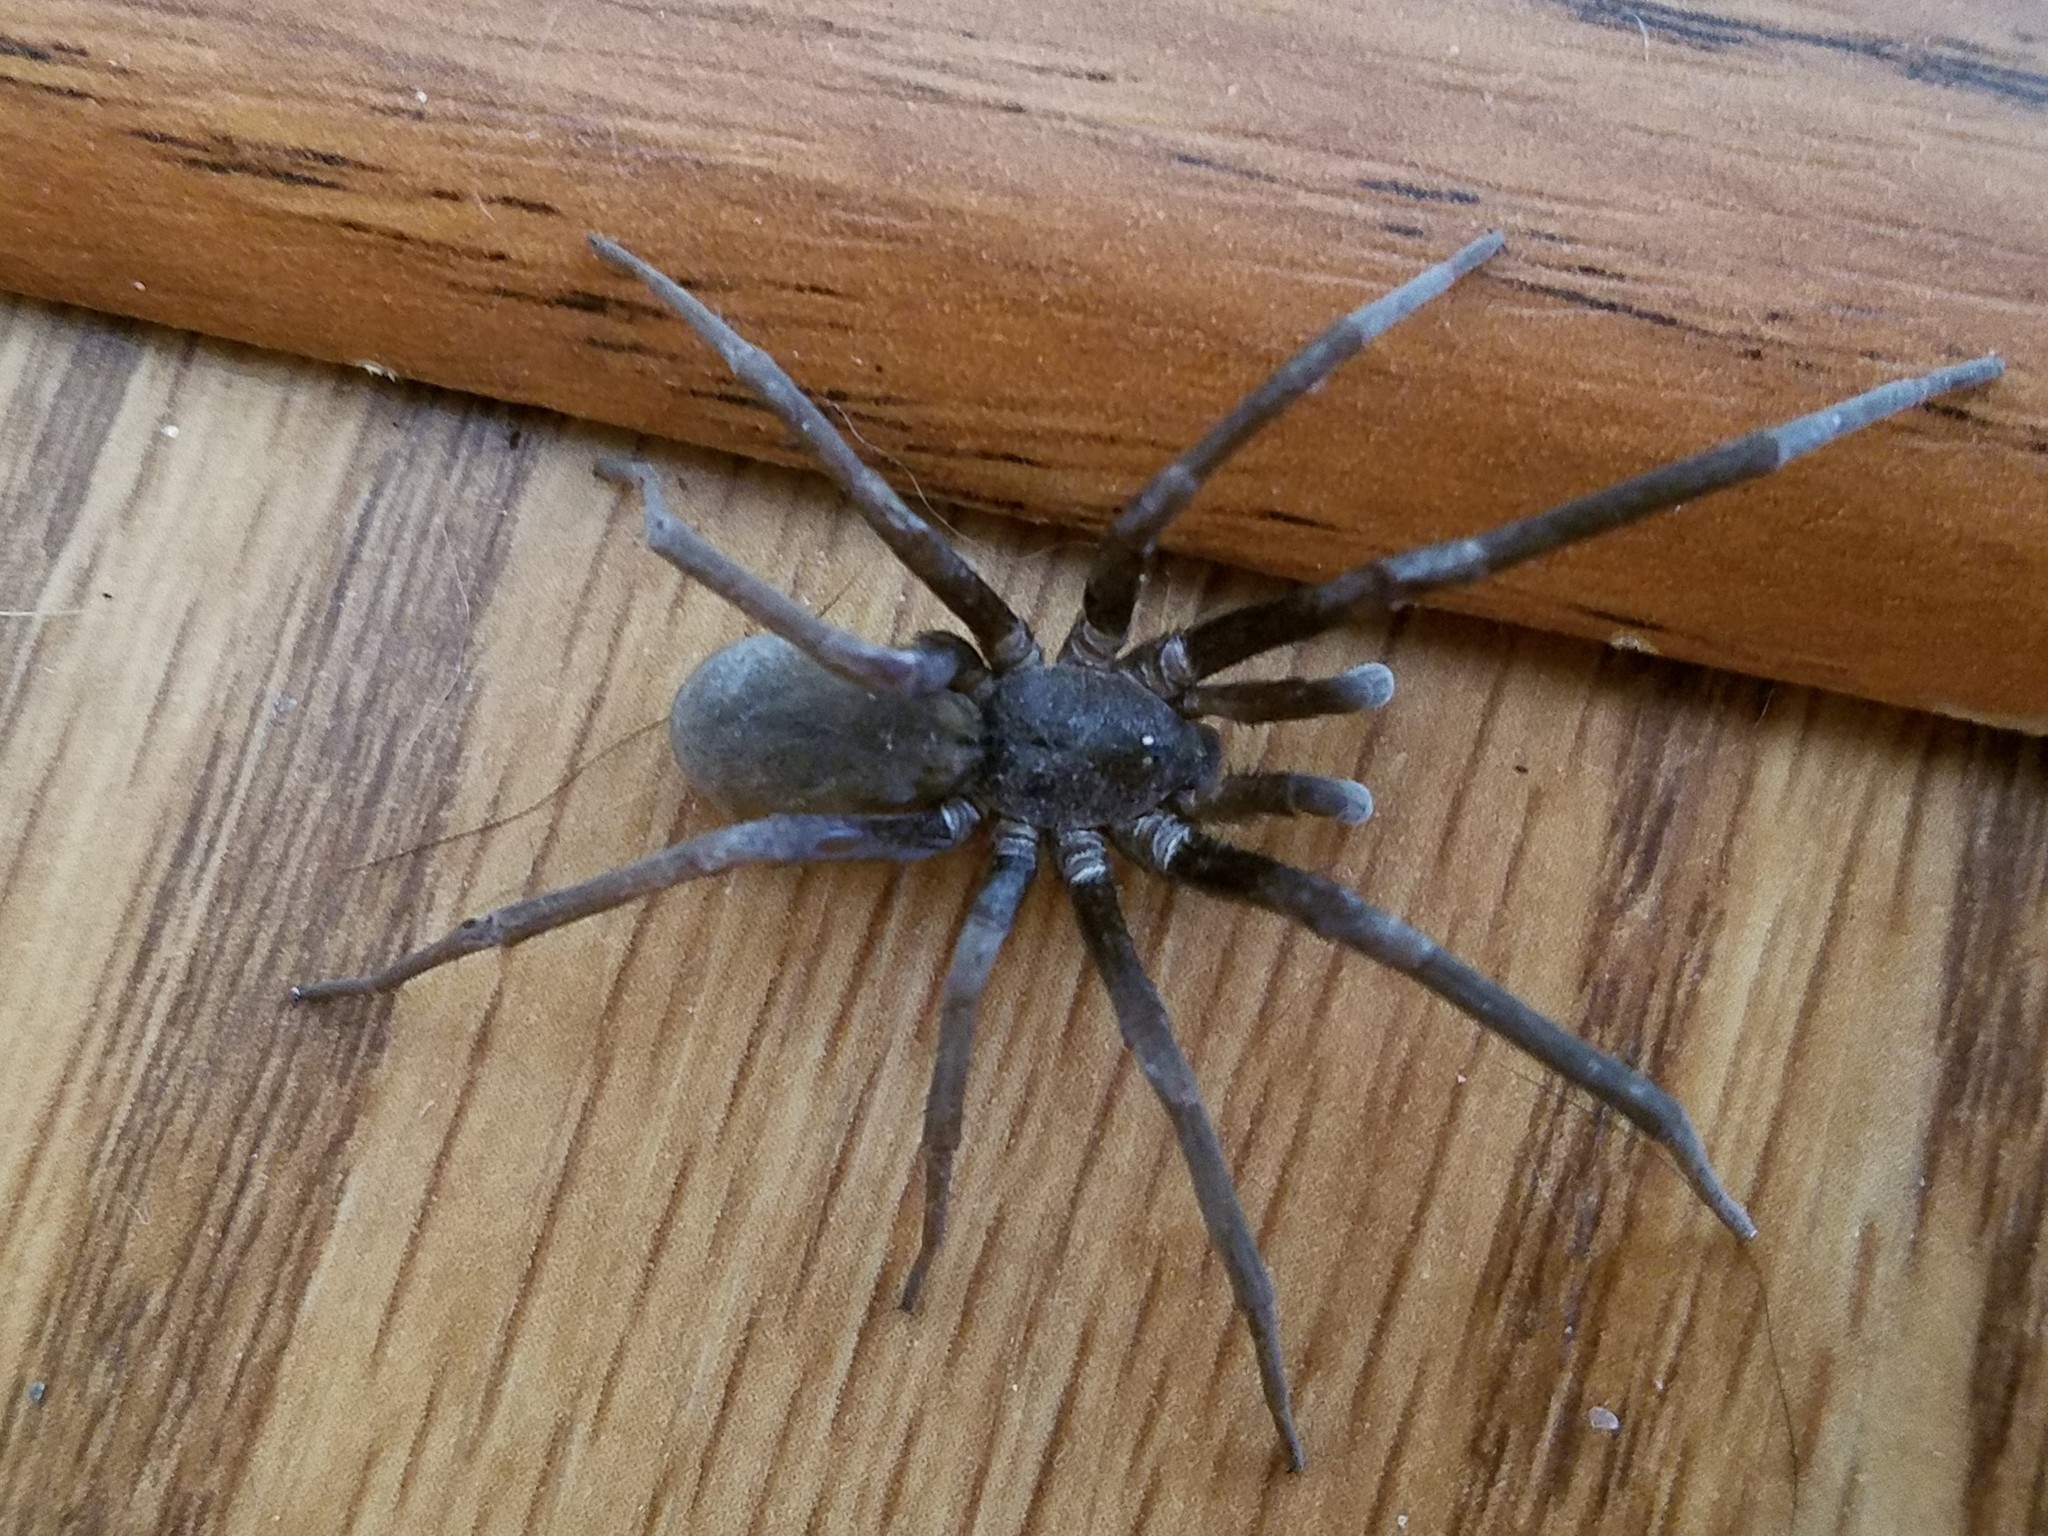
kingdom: Animalia
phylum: Arthropoda
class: Arachnida
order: Araneae
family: Filistatidae
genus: Kukulcania
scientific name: Kukulcania hibernalis
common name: Crevice weaver
